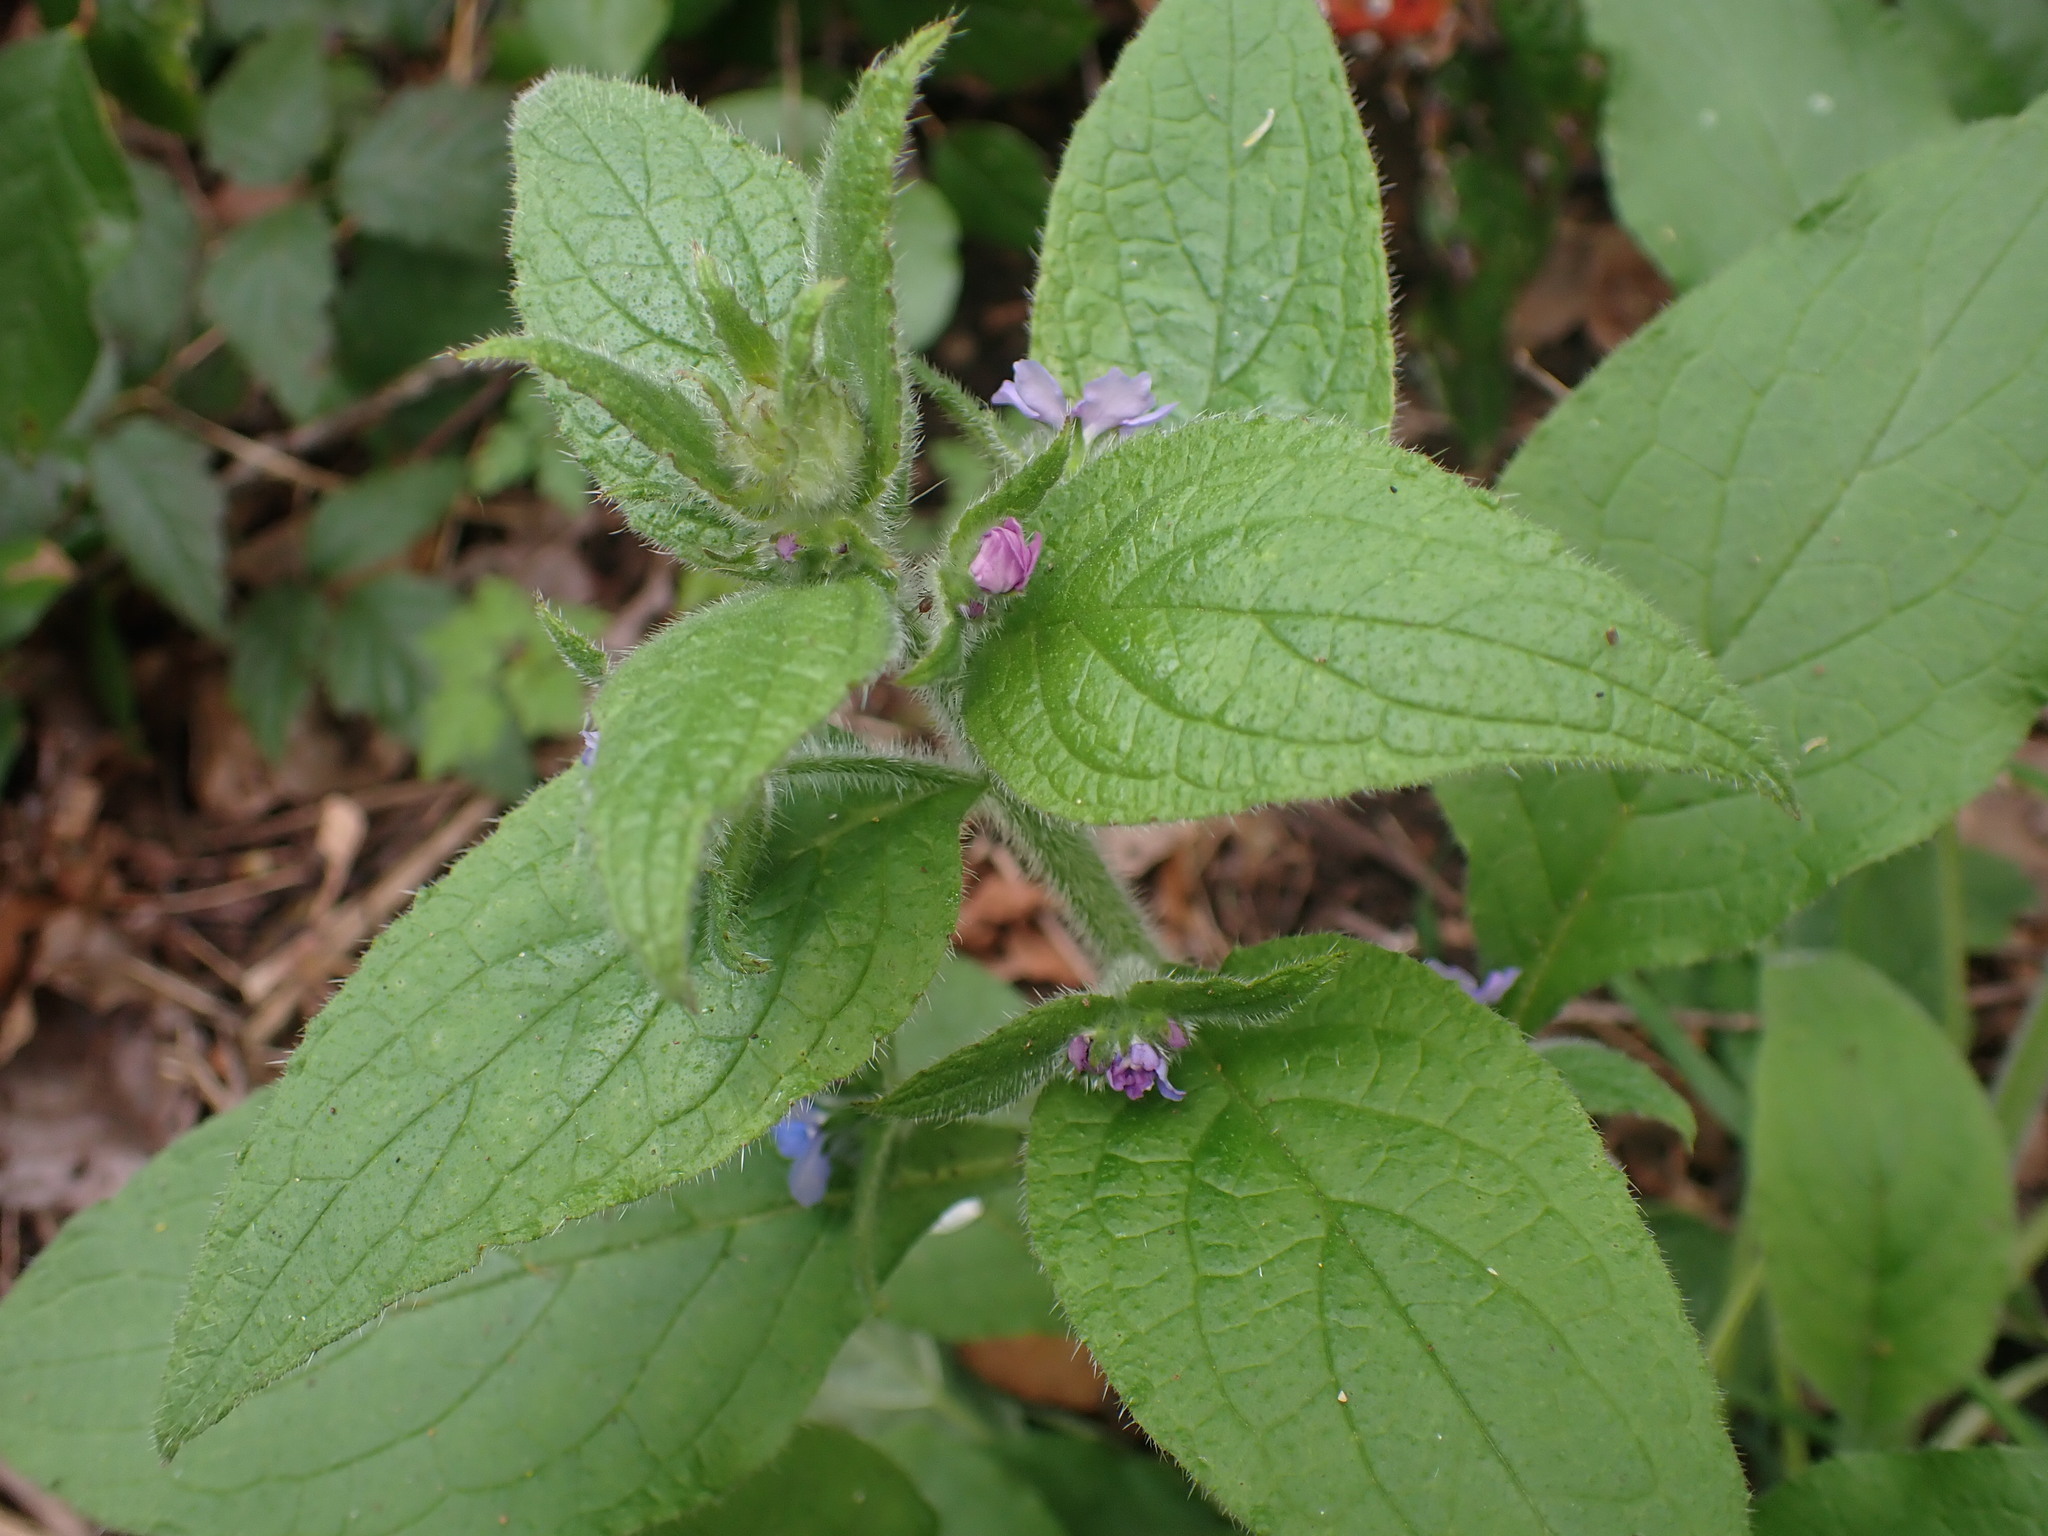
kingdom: Plantae
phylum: Tracheophyta
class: Magnoliopsida
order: Boraginales
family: Boraginaceae
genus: Pentaglottis
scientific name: Pentaglottis sempervirens
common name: Green alkanet
